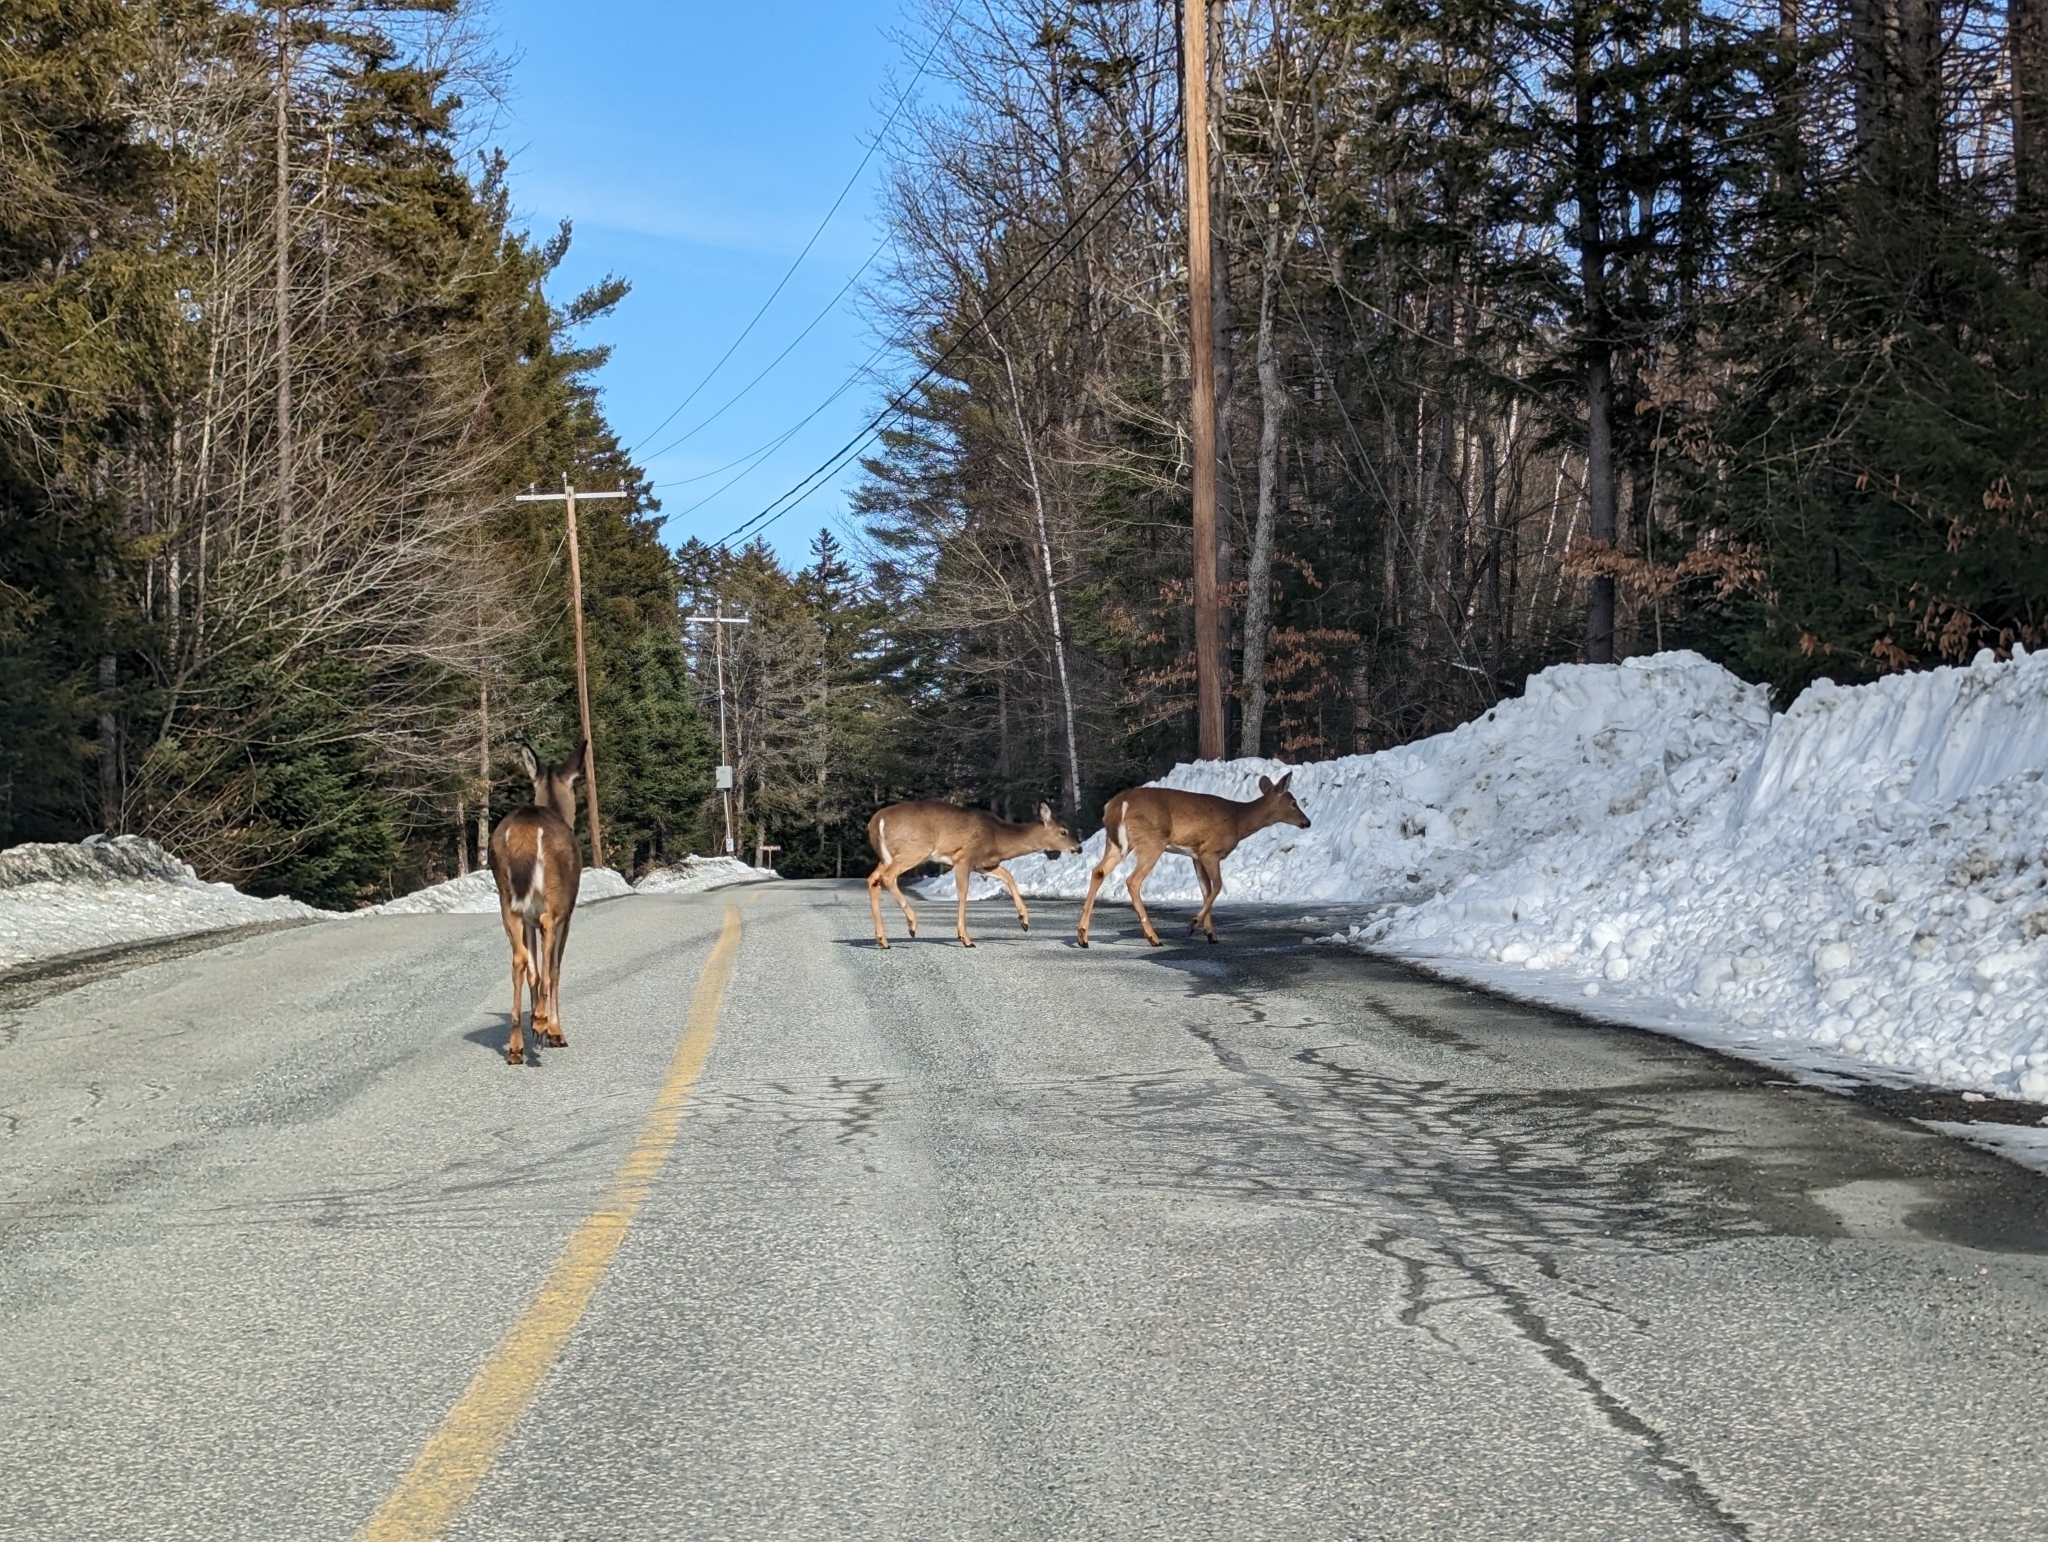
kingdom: Animalia
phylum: Chordata
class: Mammalia
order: Artiodactyla
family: Cervidae
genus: Odocoileus
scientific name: Odocoileus virginianus
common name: White-tailed deer
